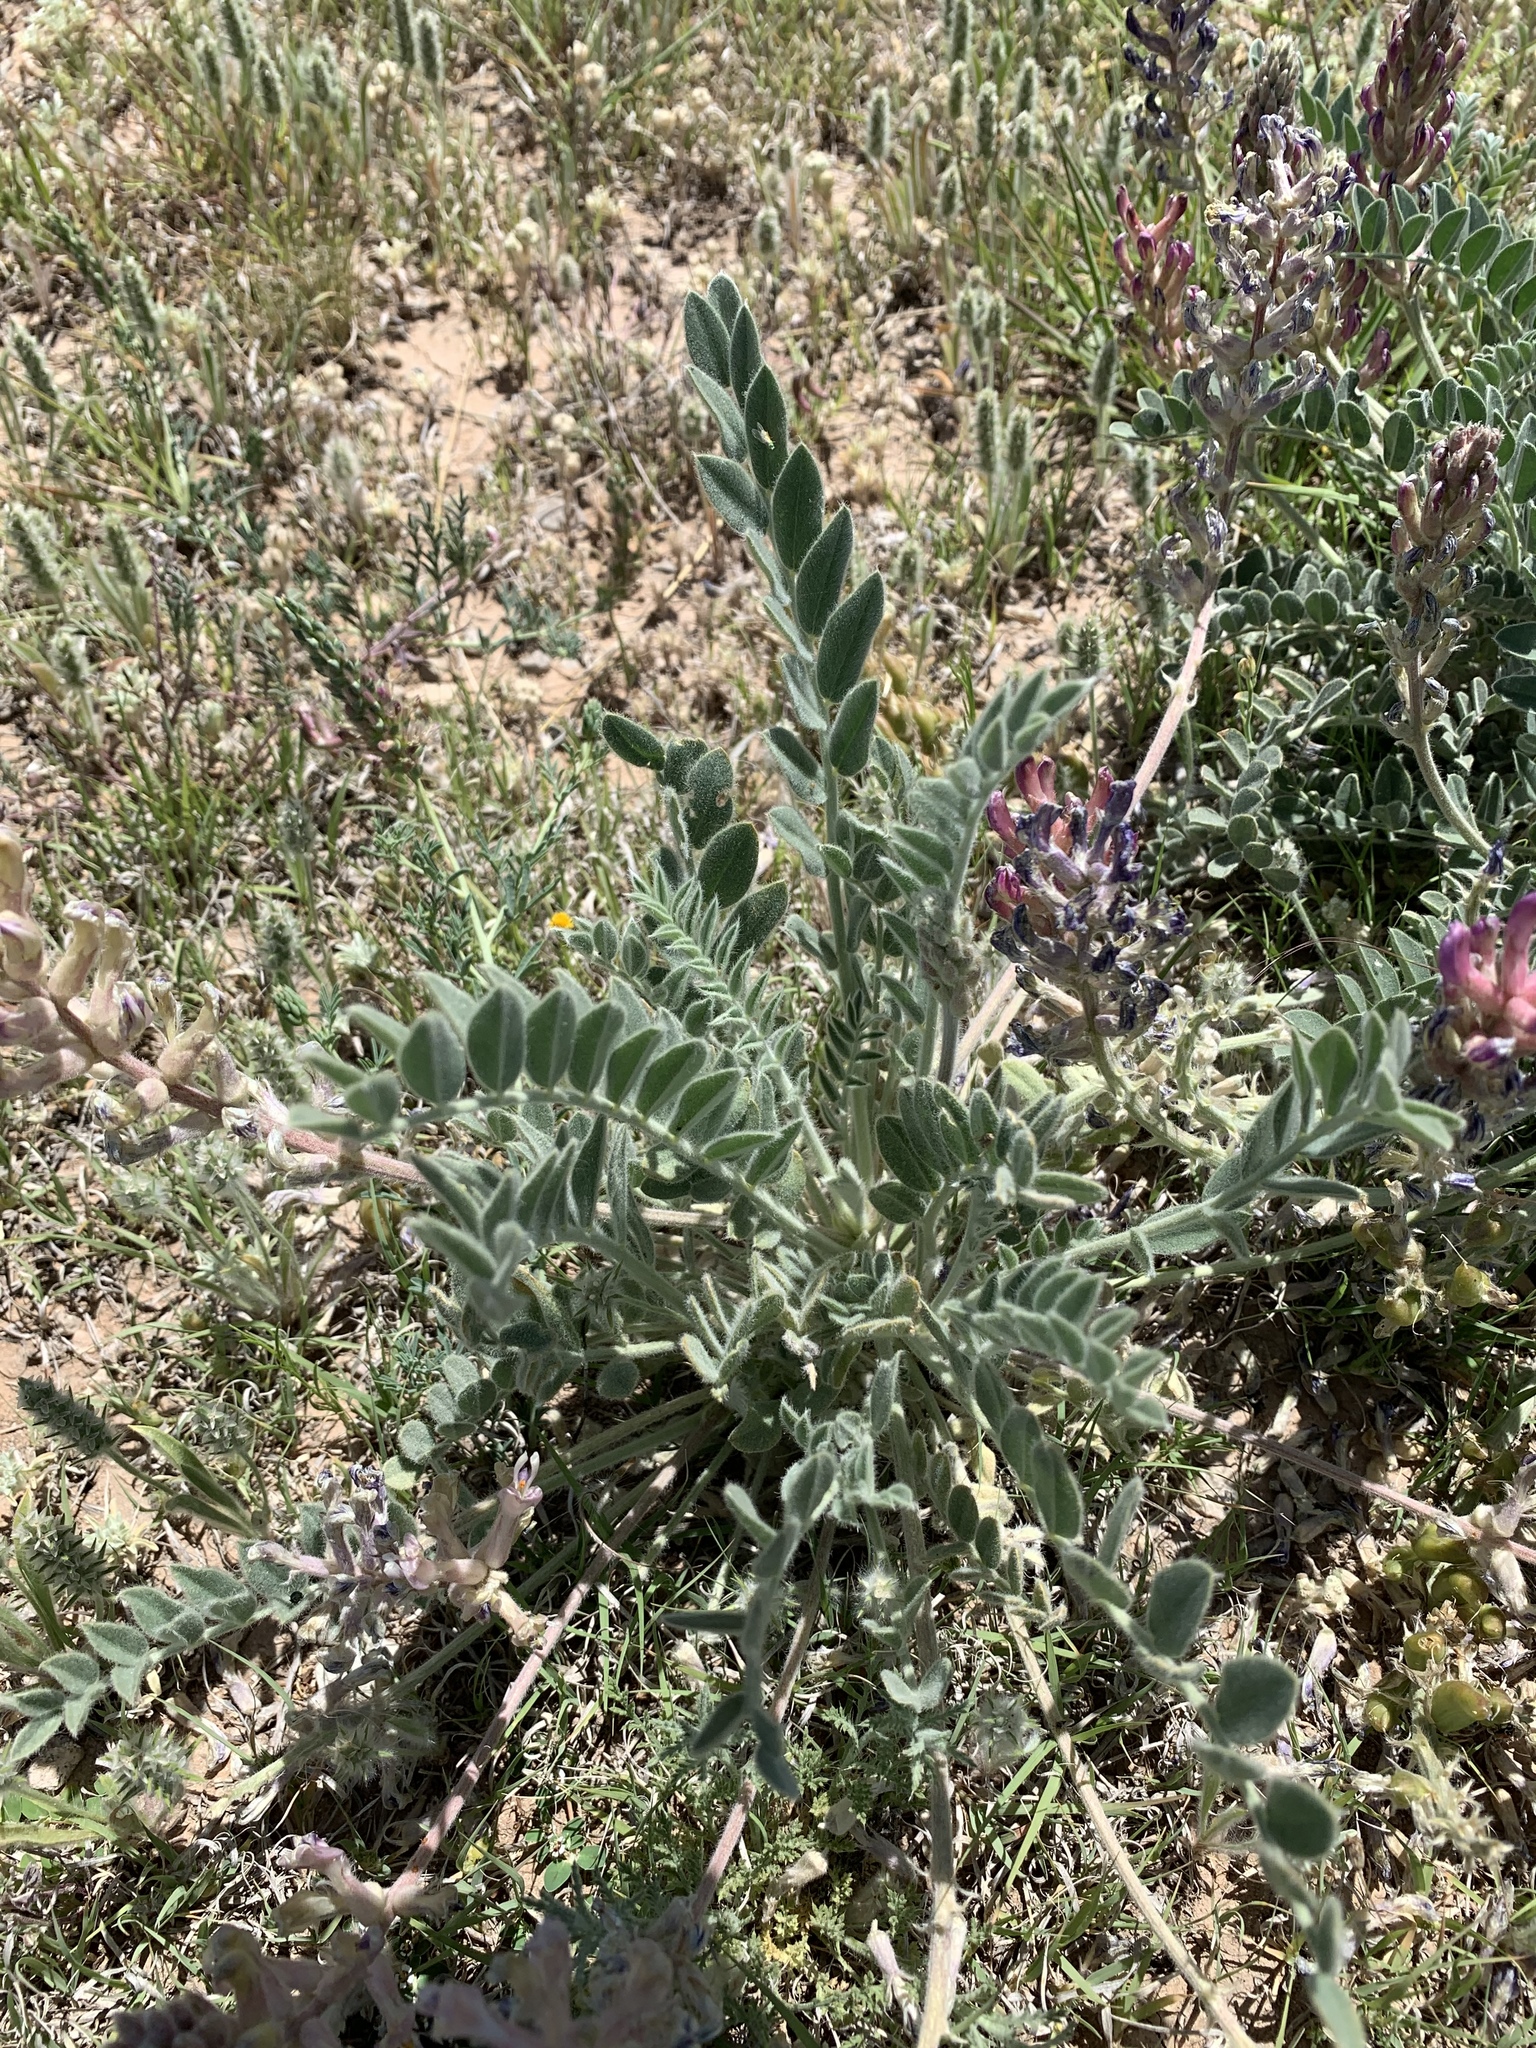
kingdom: Plantae
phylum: Tracheophyta
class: Magnoliopsida
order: Fabales
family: Fabaceae
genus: Astragalus
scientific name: Astragalus mollissimus
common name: Woolly locoweed
